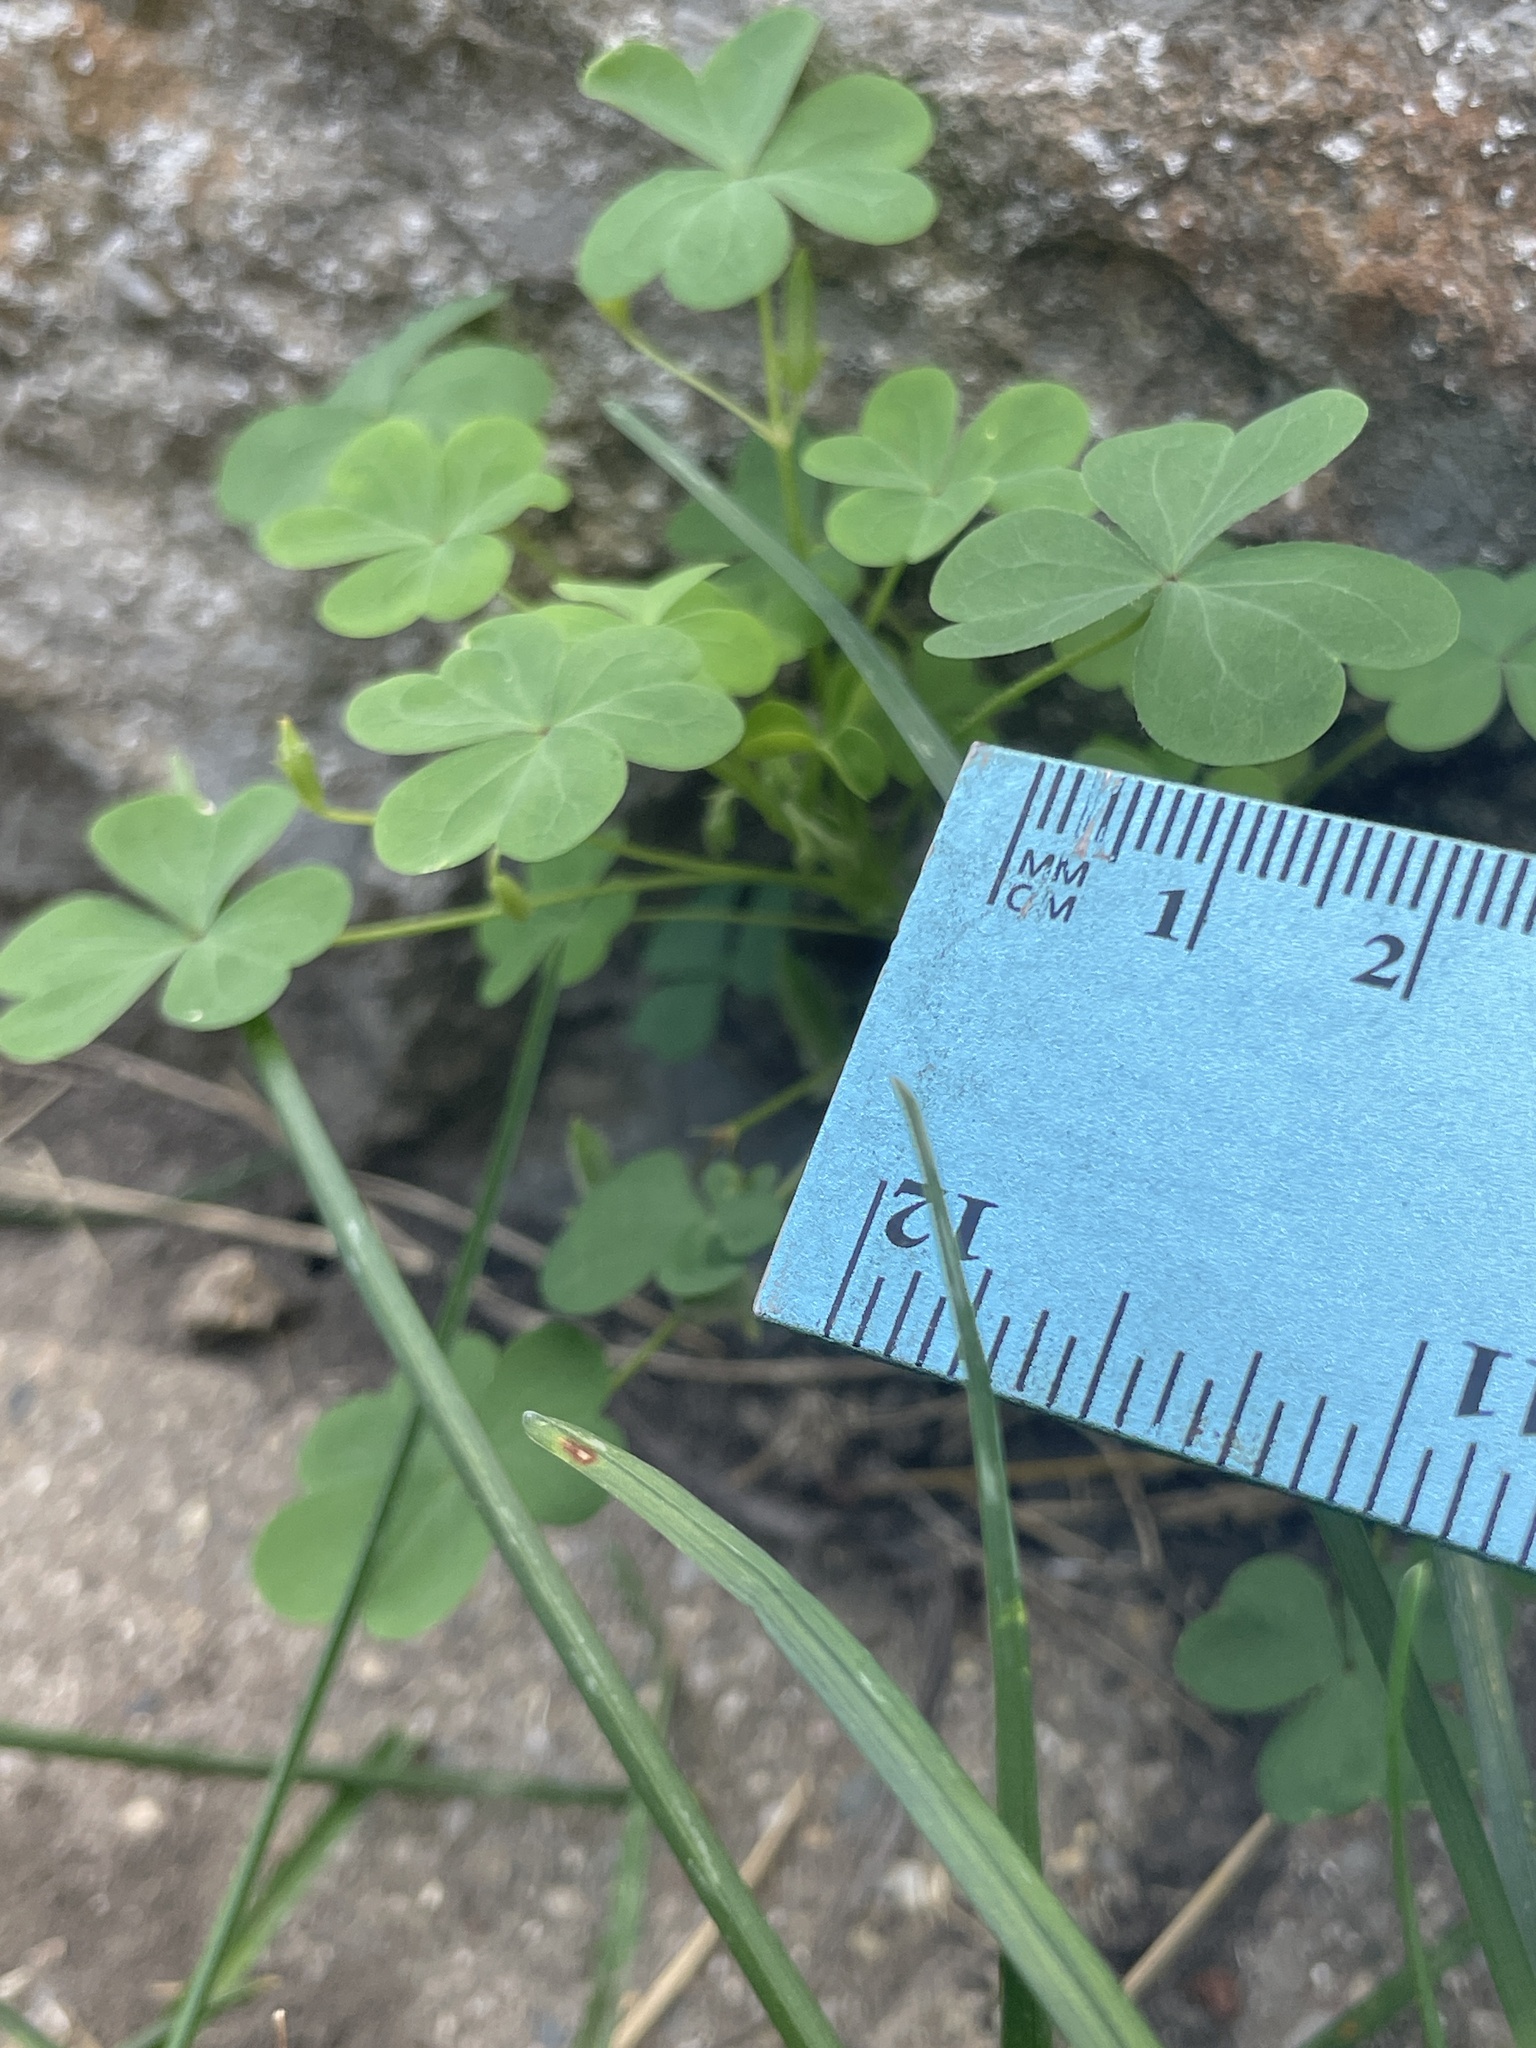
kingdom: Plantae
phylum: Tracheophyta
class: Magnoliopsida
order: Oxalidales
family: Oxalidaceae
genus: Oxalis
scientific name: Oxalis stricta
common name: Upright yellow-sorrel
